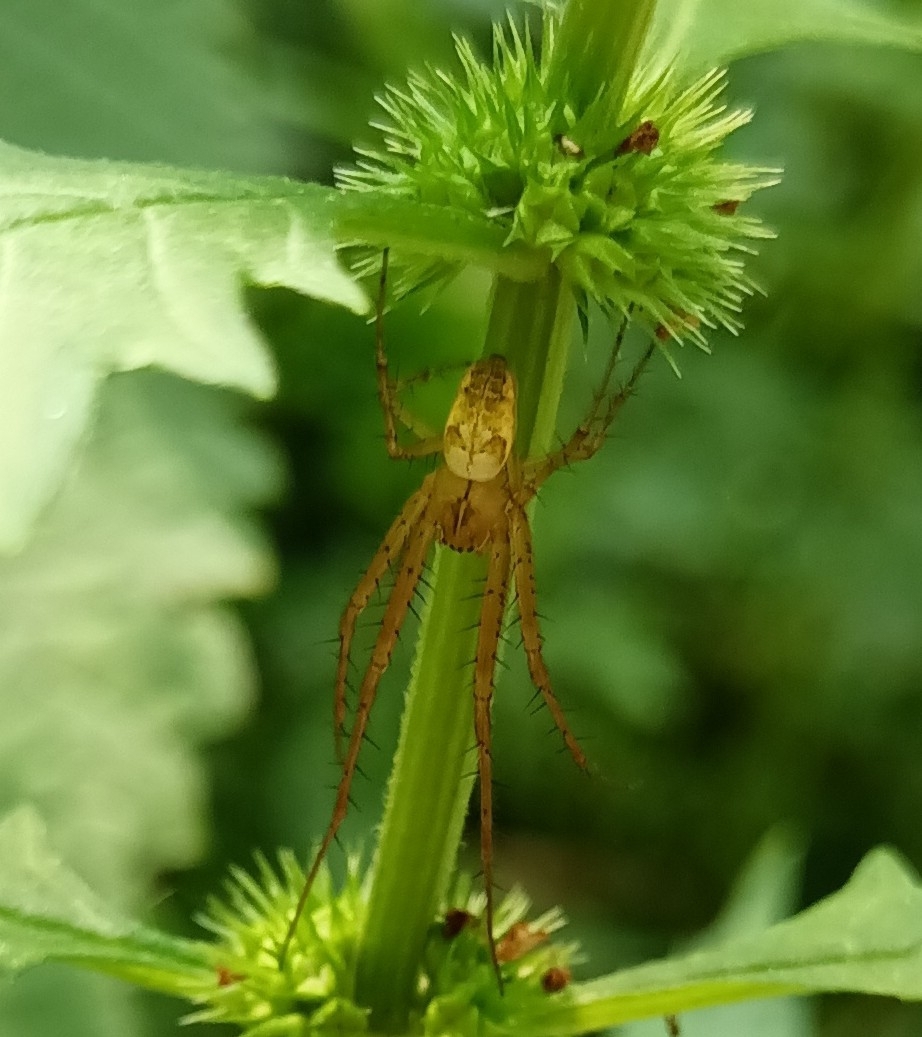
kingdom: Animalia
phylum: Arthropoda
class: Arachnida
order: Araneae
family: Tetragnathidae
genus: Metellina
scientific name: Metellina
